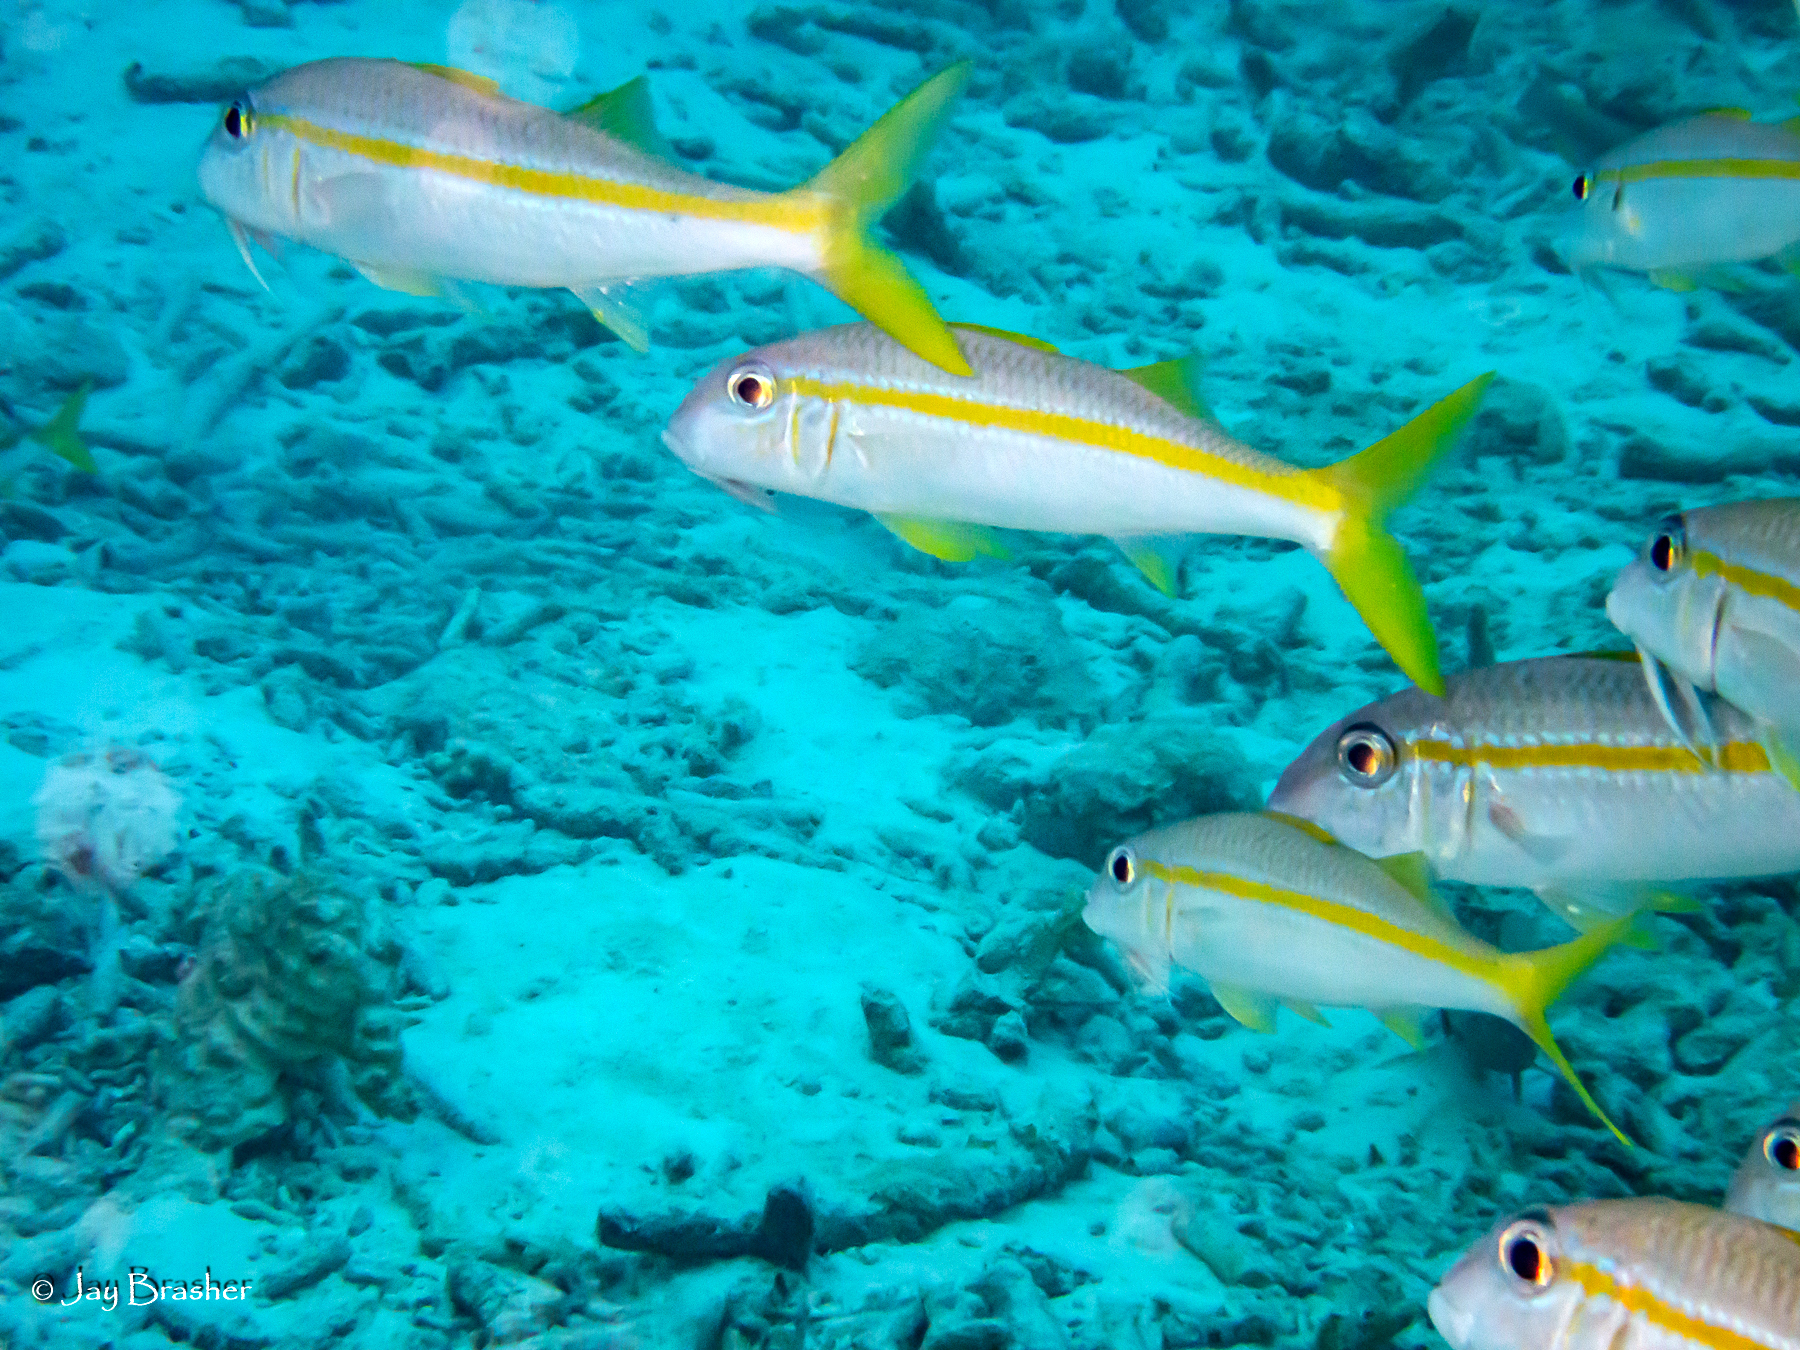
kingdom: Animalia
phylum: Chordata
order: Perciformes
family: Mullidae
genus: Mulloidichthys
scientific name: Mulloidichthys martinicus
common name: Yellow goatfish
